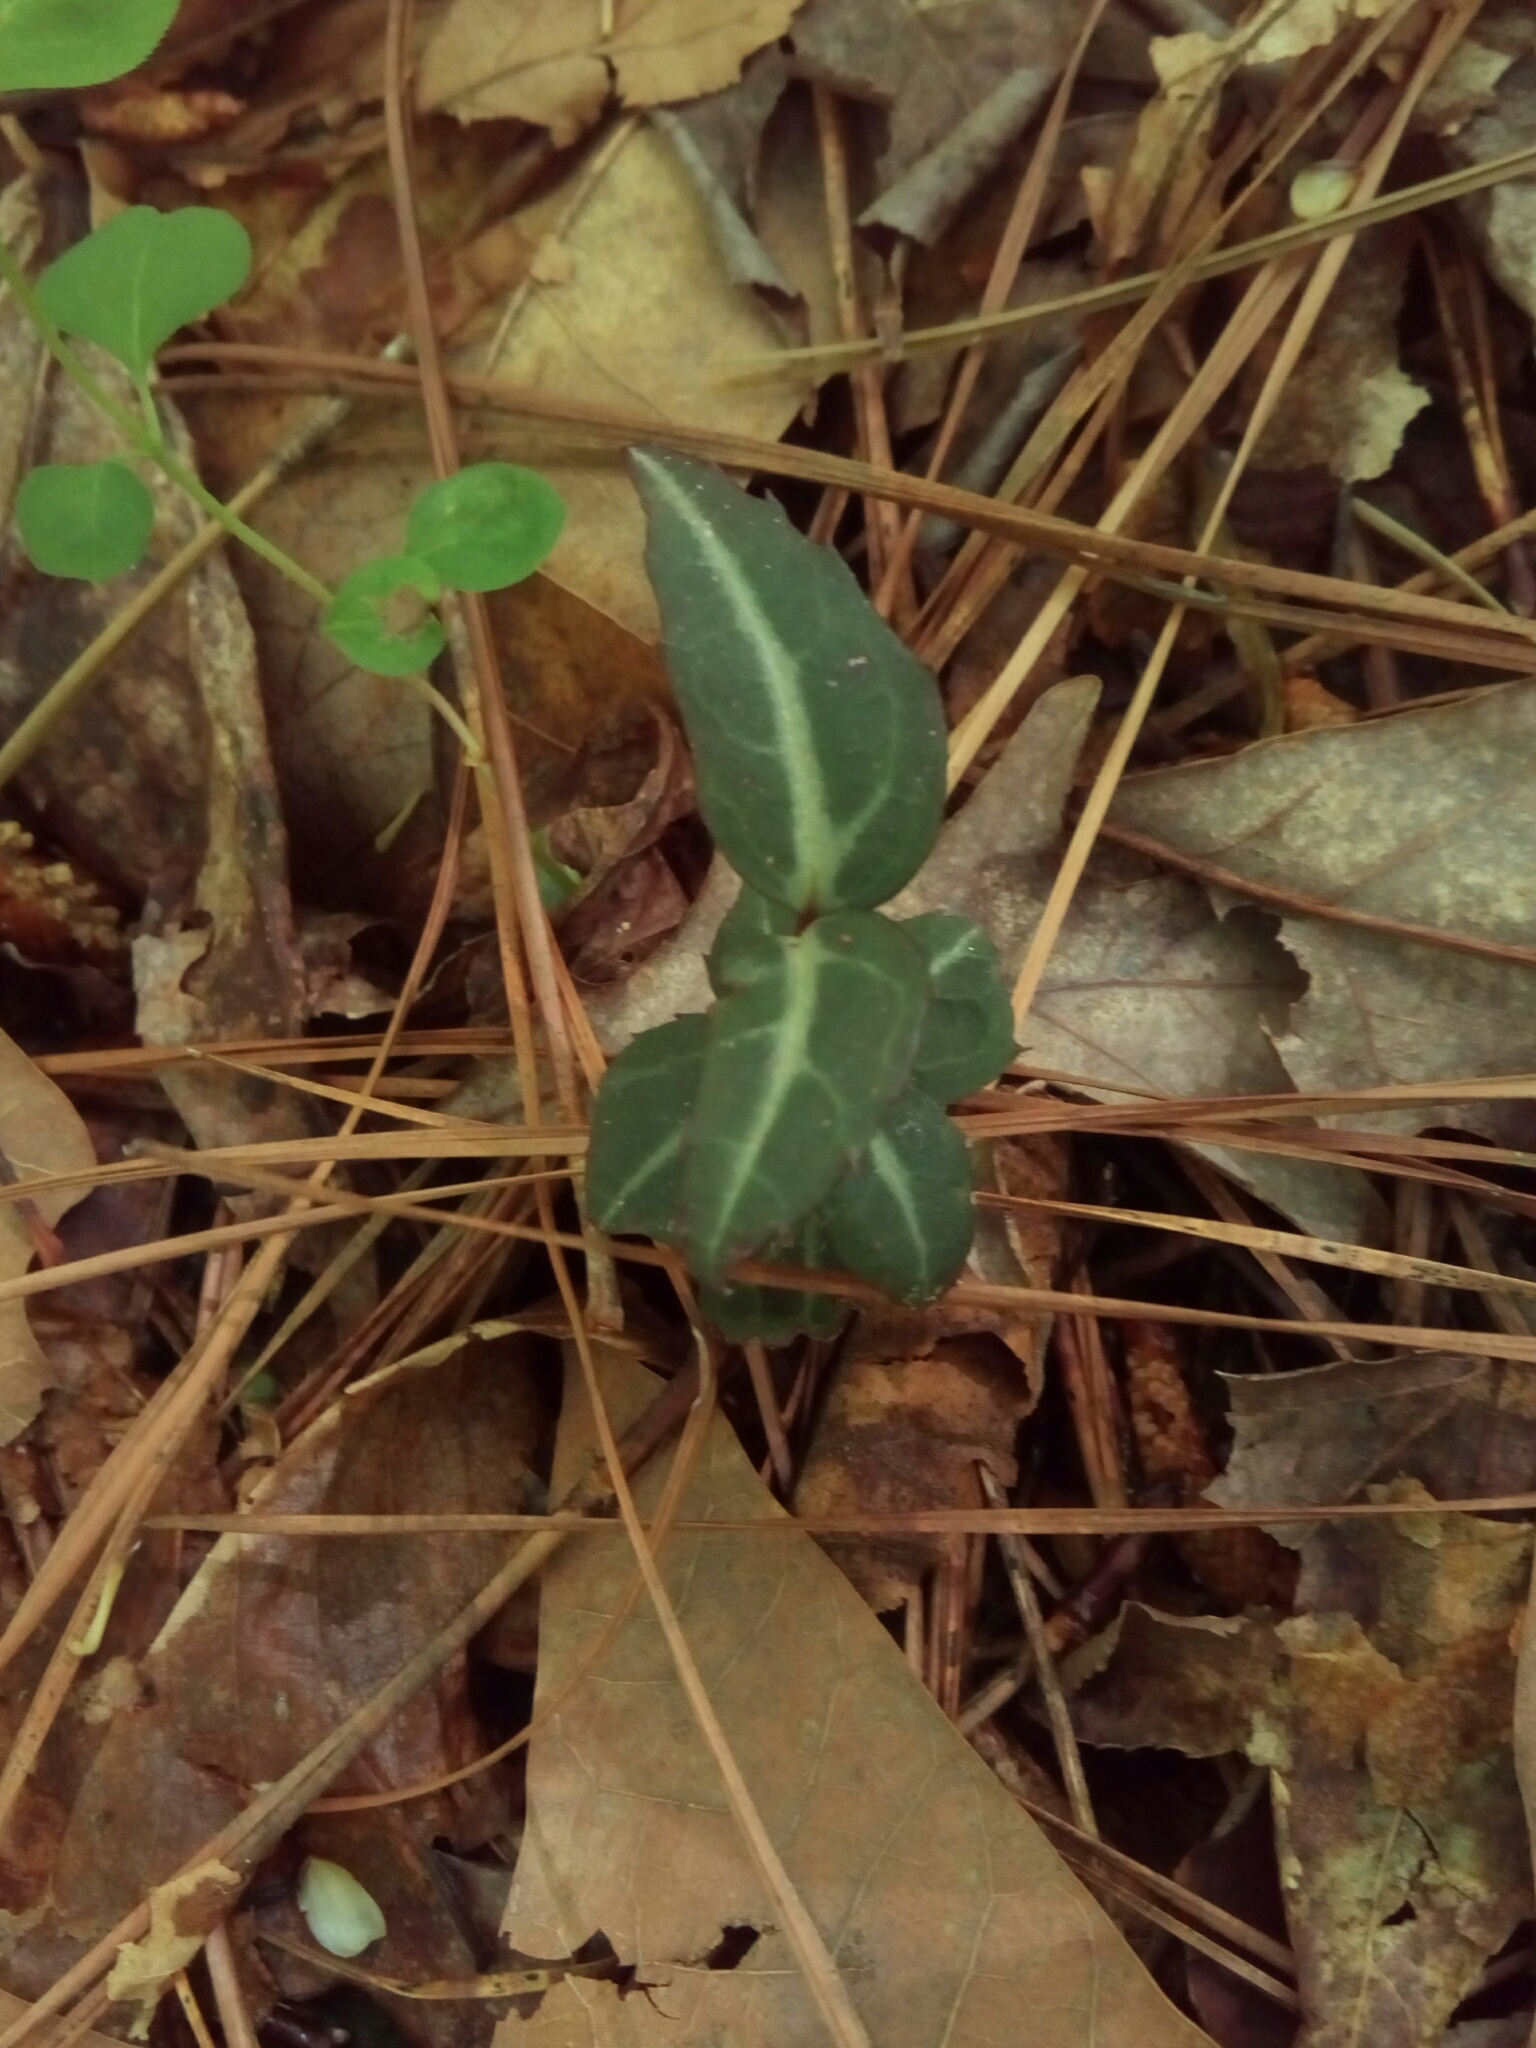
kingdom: Plantae
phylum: Tracheophyta
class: Magnoliopsida
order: Ericales
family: Ericaceae
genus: Chimaphila
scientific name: Chimaphila maculata
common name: Spotted pipsissewa
